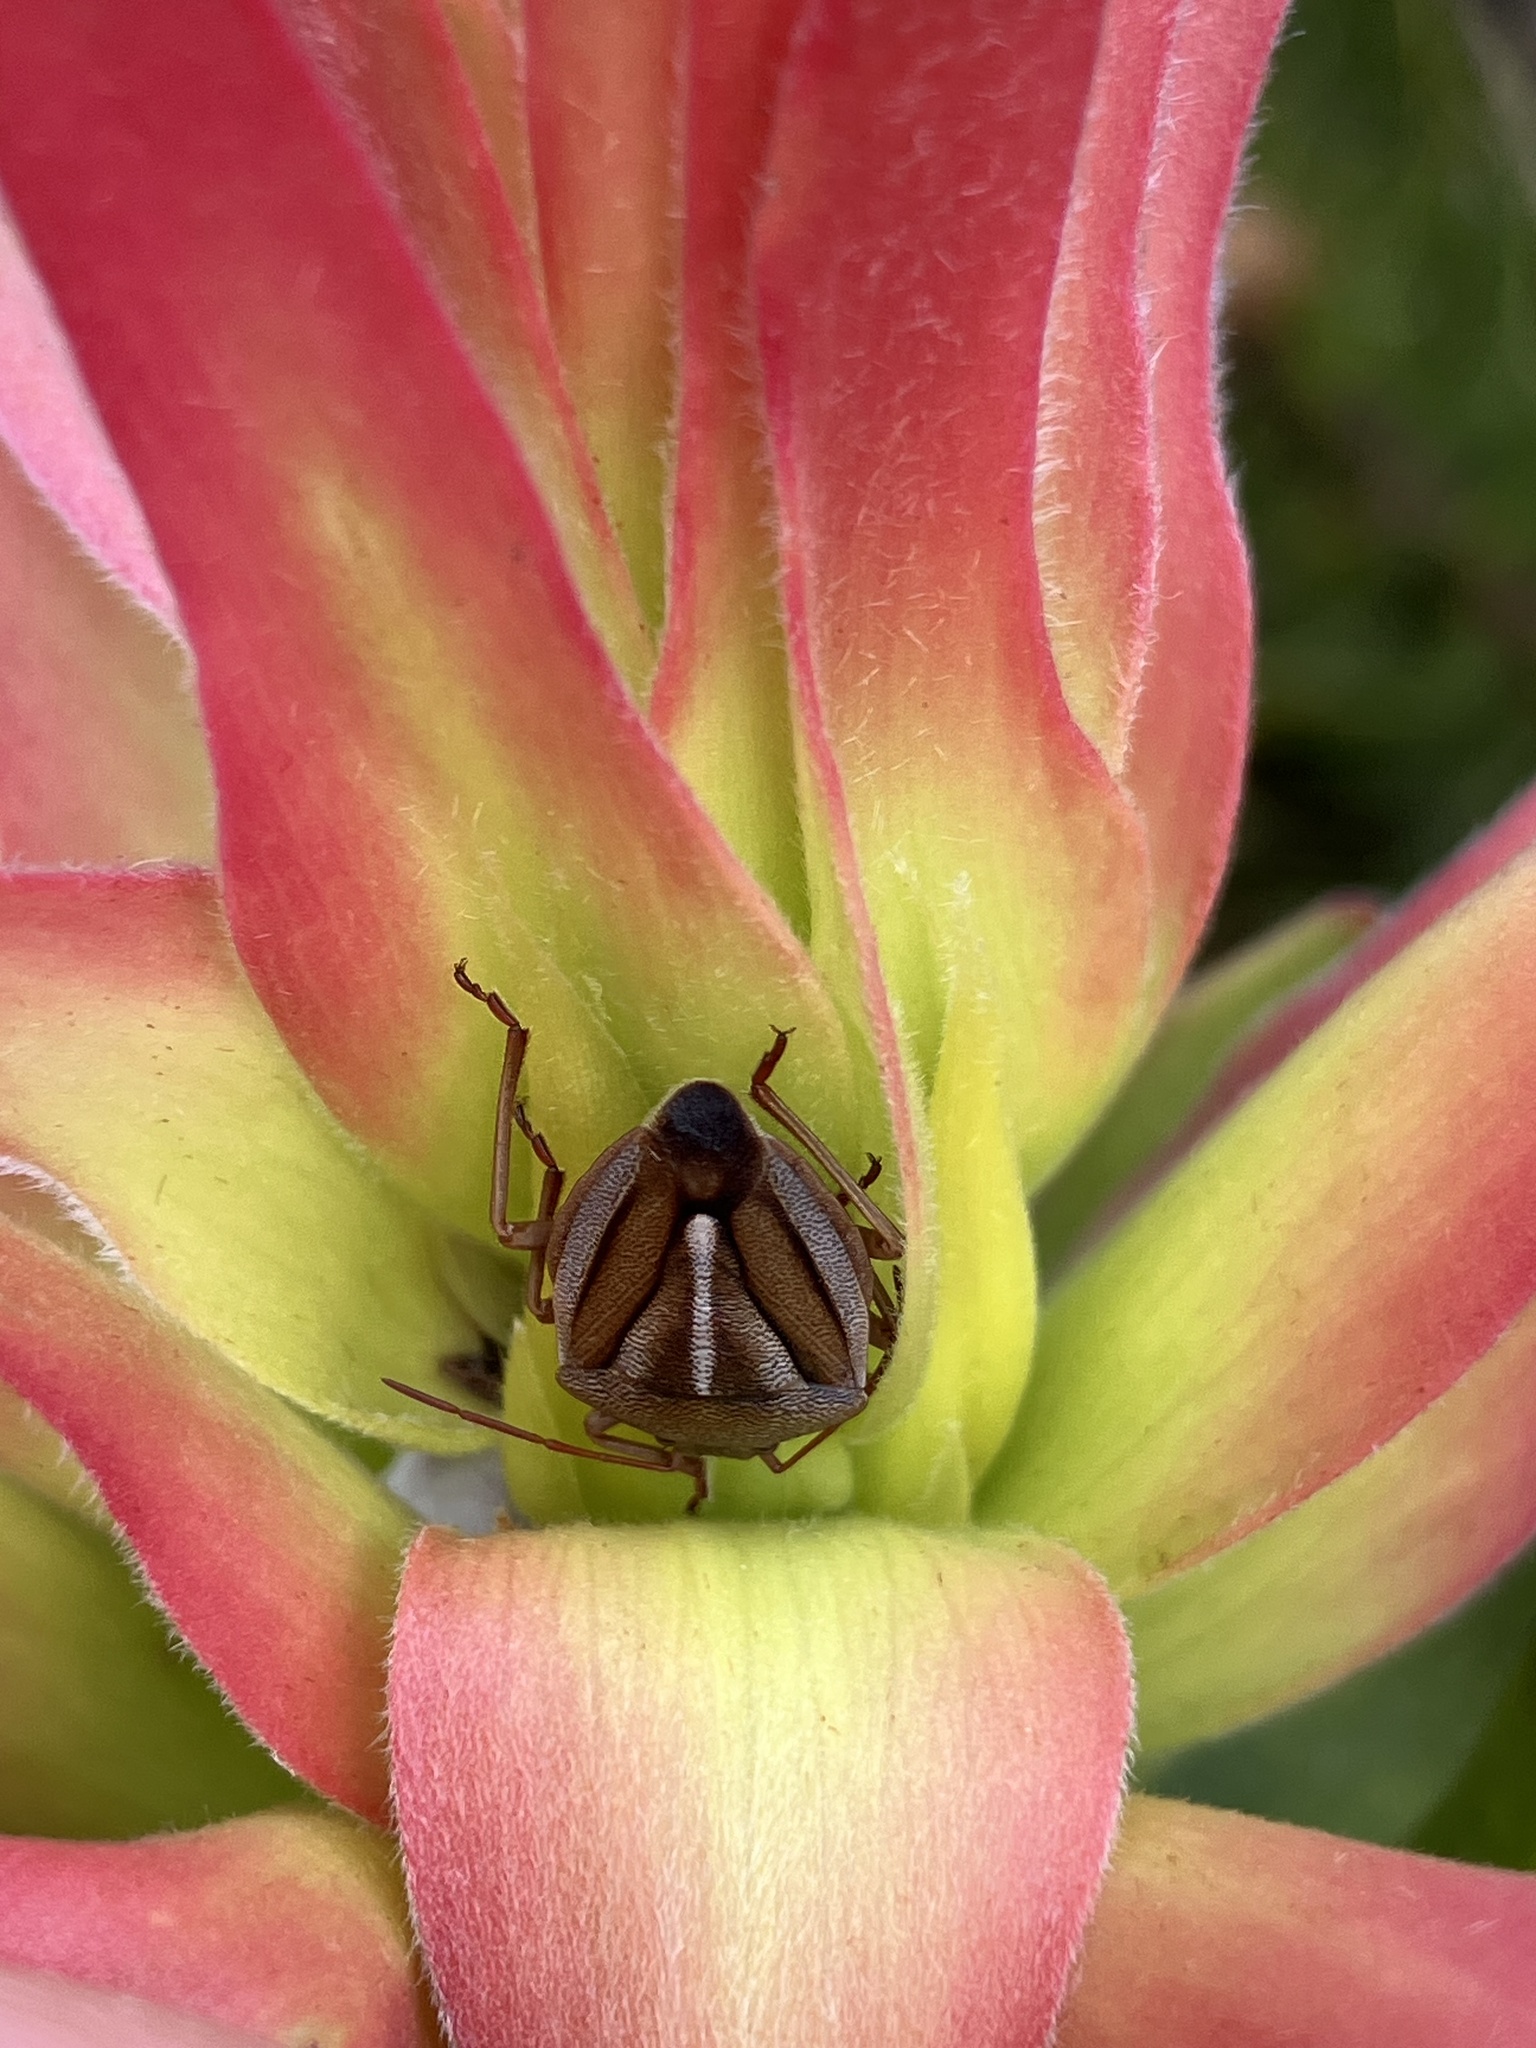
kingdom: Animalia
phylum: Arthropoda
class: Insecta
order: Hemiptera
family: Pentatomidae
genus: Theloris
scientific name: Theloris costata
